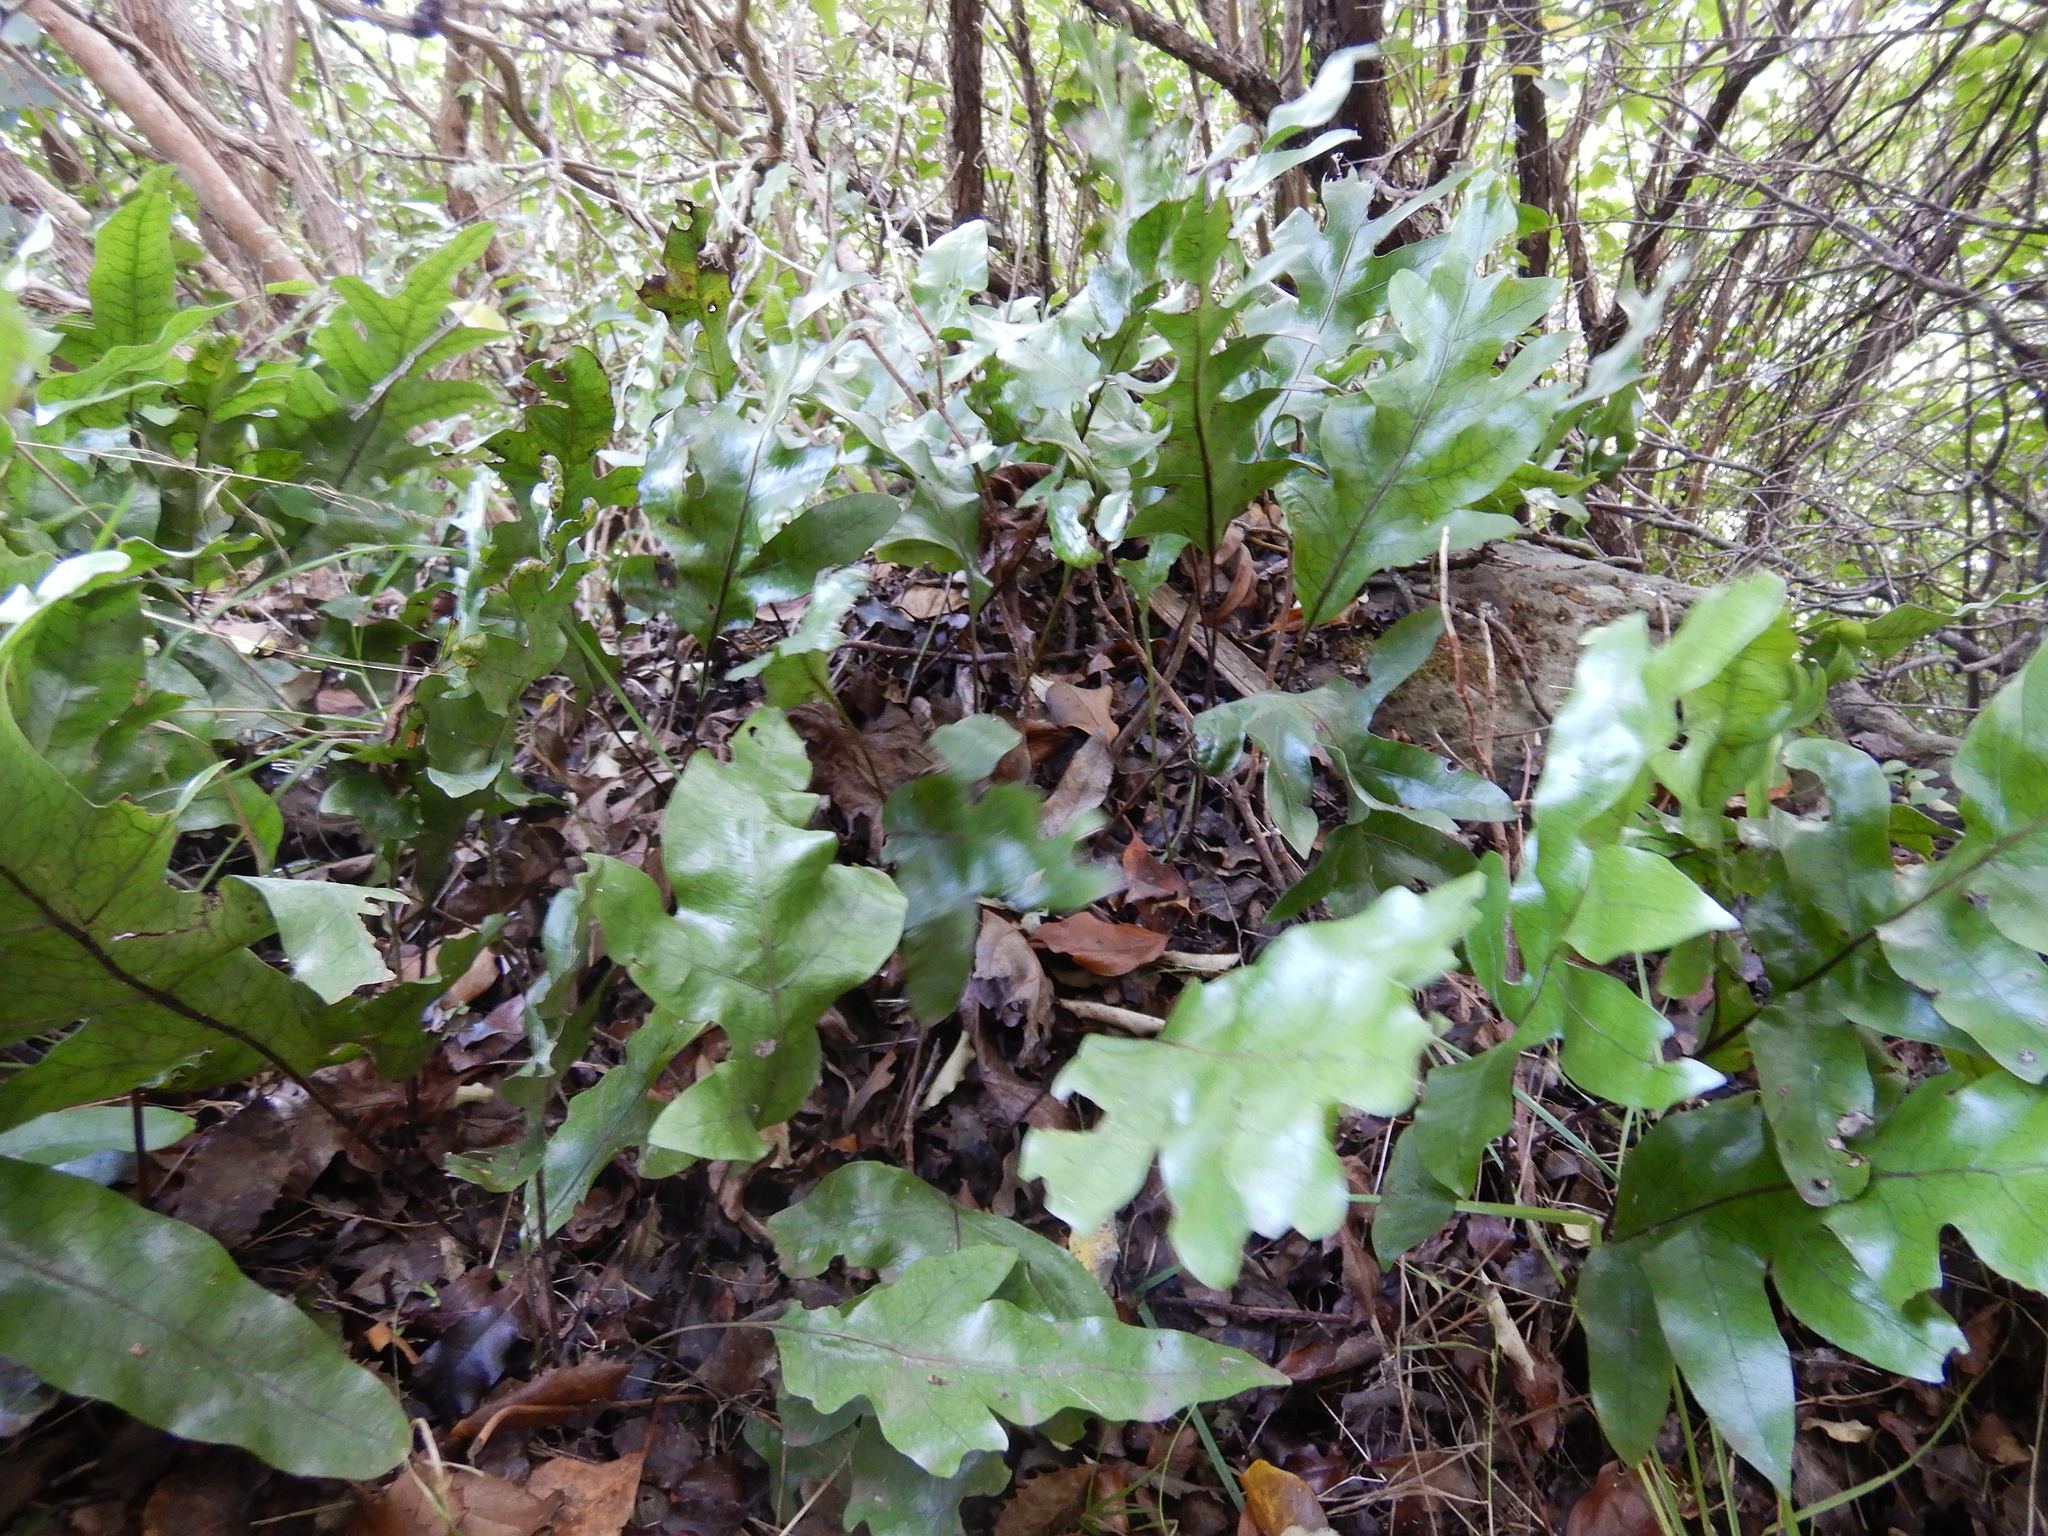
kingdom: Plantae
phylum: Tracheophyta
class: Polypodiopsida
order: Polypodiales
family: Polypodiaceae
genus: Lecanopteris
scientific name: Lecanopteris pustulata
